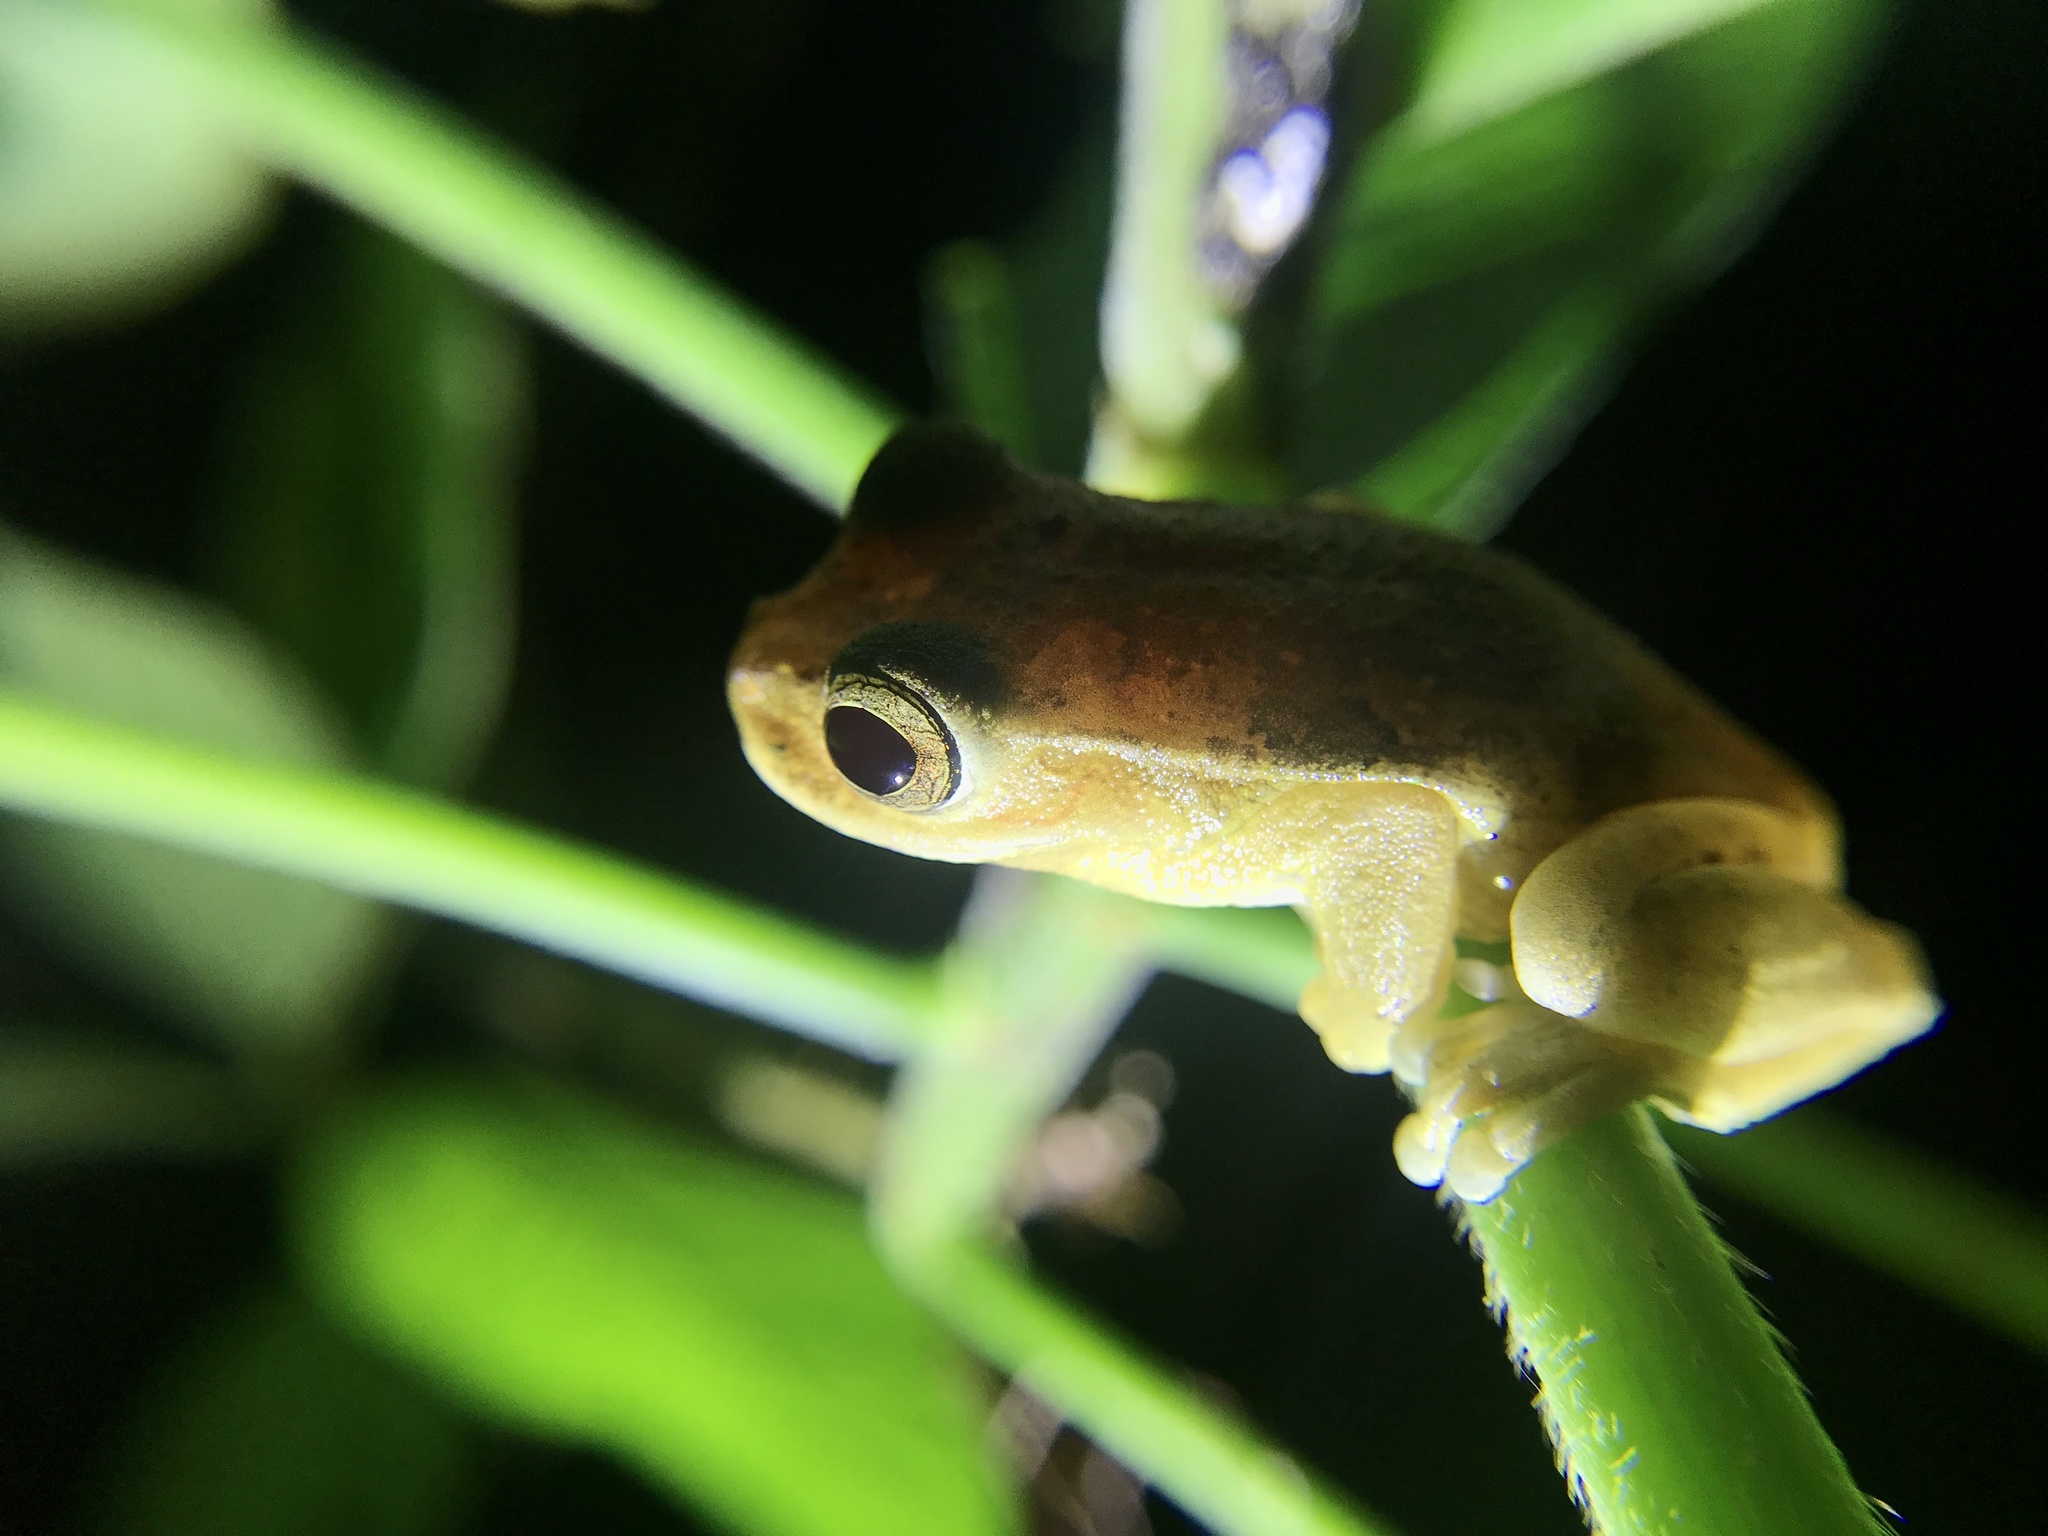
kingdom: Animalia
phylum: Chordata
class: Amphibia
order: Anura
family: Hylidae
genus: Dendropsophus
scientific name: Dendropsophus microcephalus
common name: Small-headed treefrog
